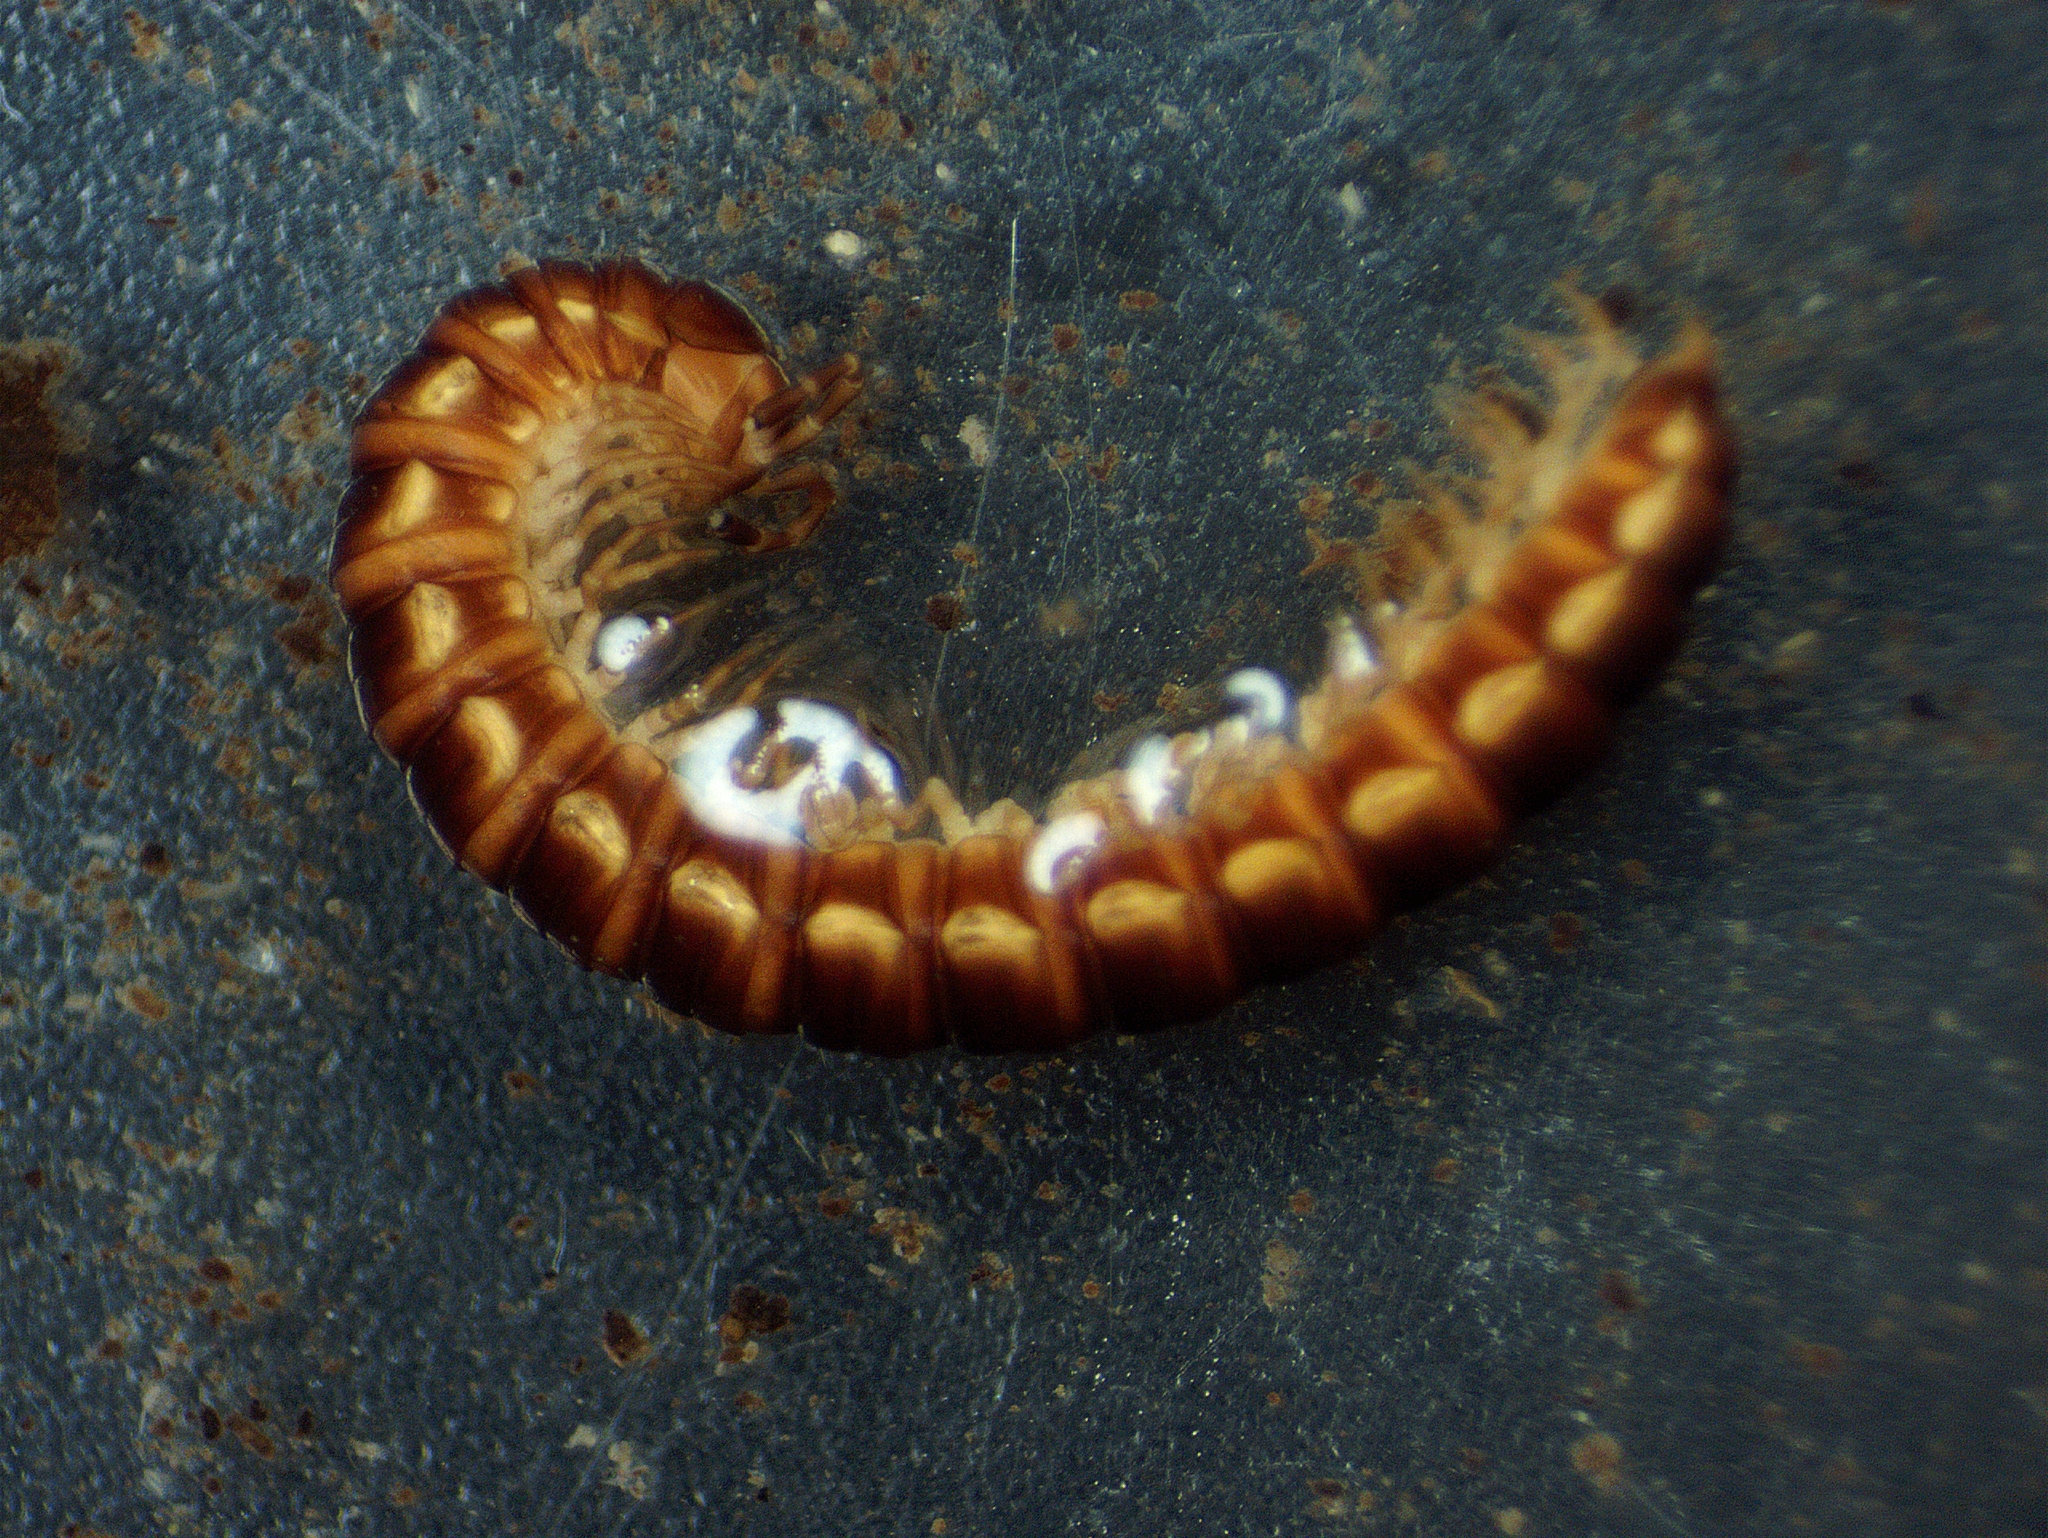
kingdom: Animalia
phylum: Arthropoda
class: Diplopoda
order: Polydesmida
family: Paradoxosomatidae
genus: Oxidus
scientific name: Oxidus gracilis
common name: Greenhouse millipede
